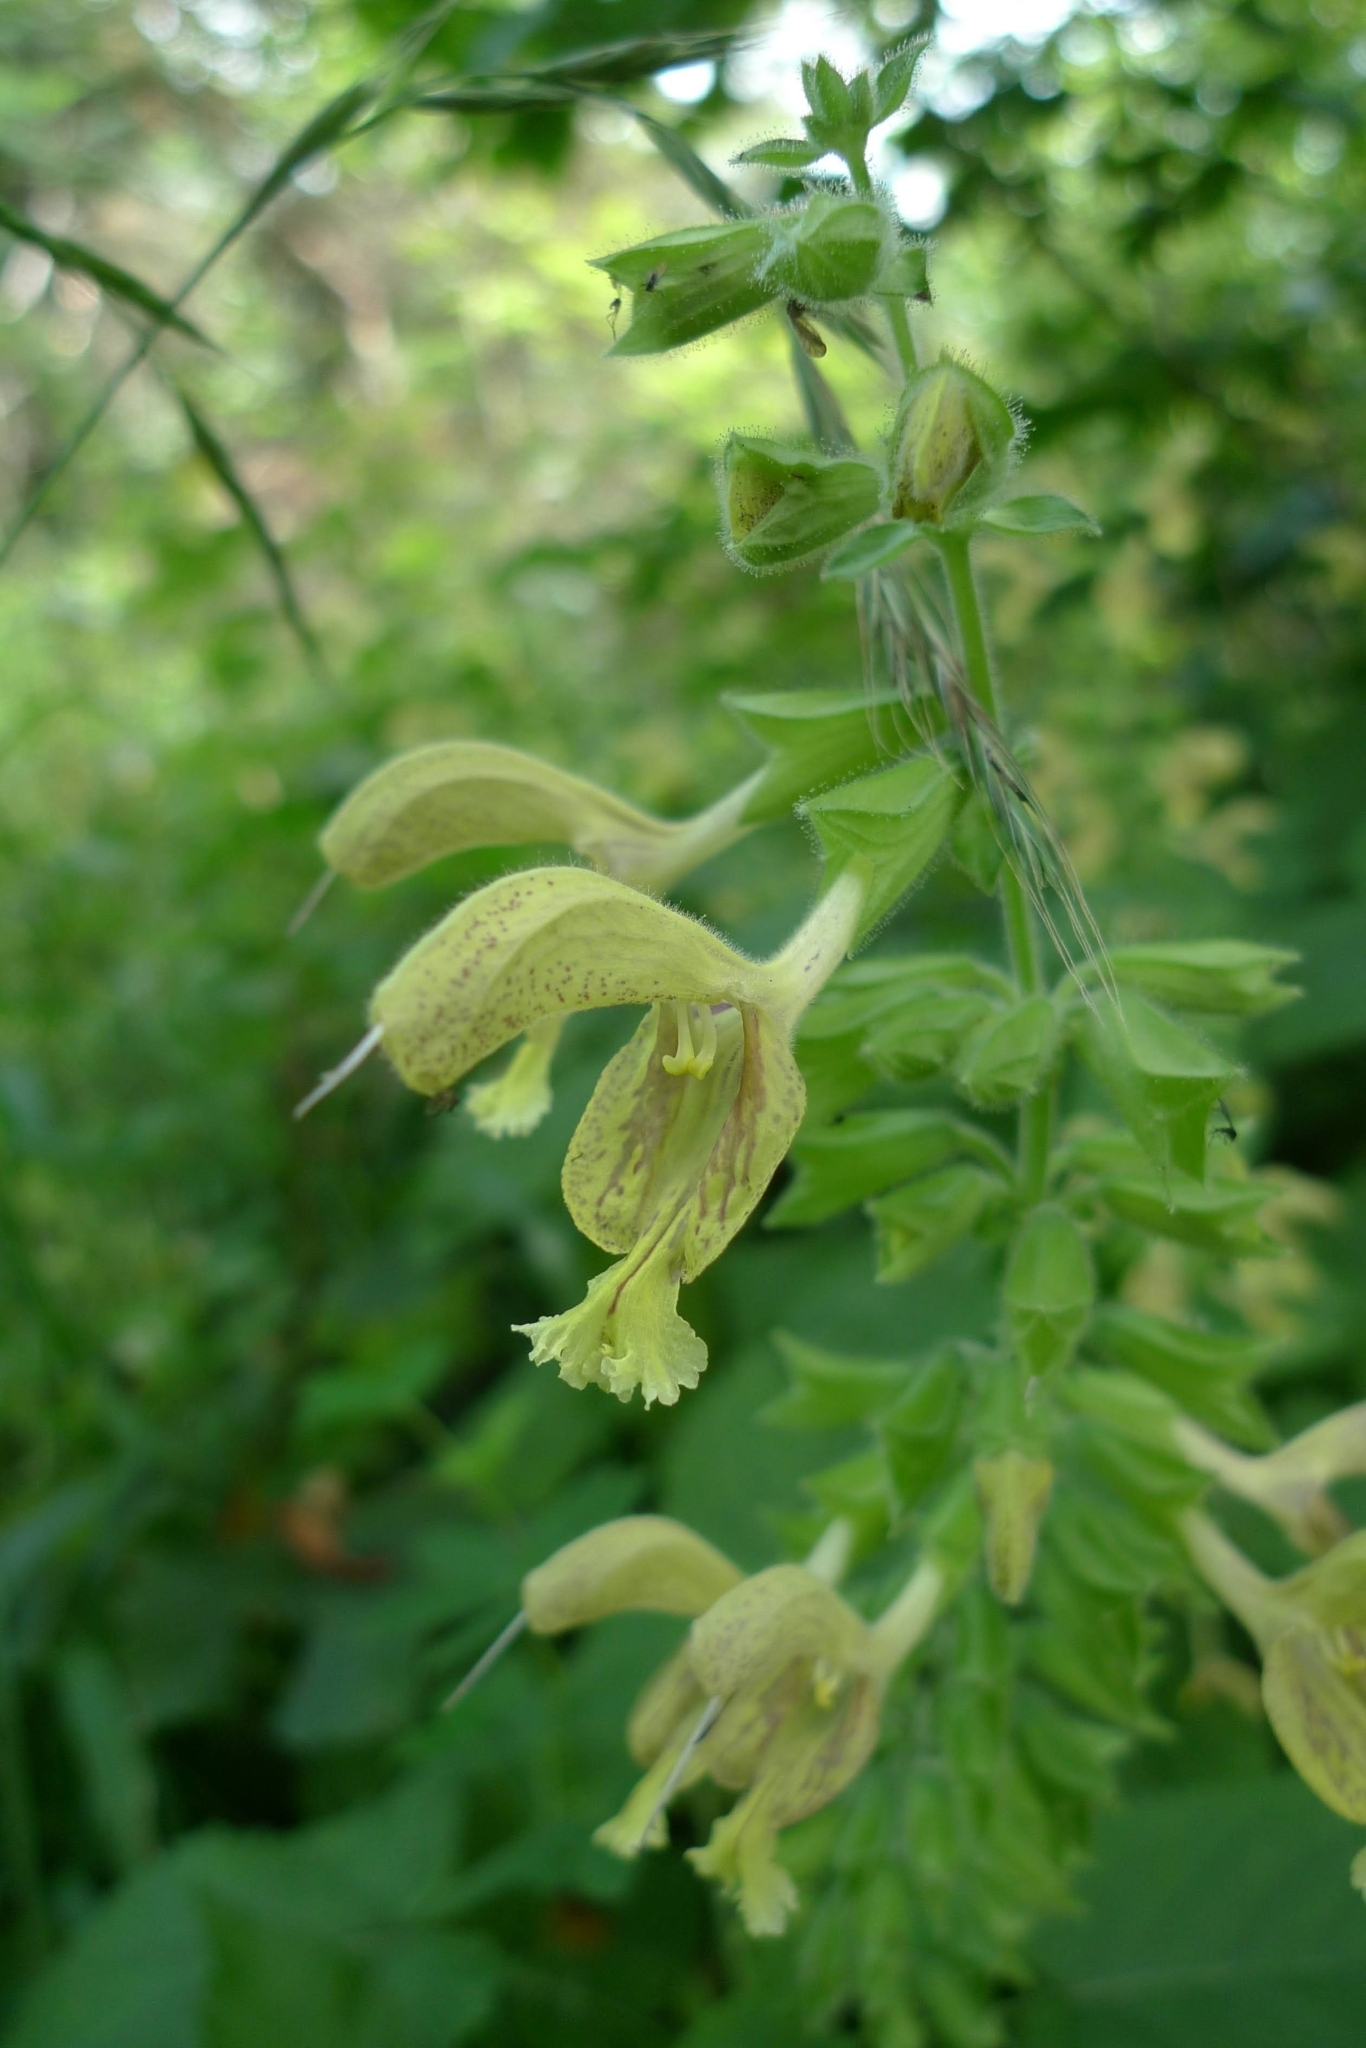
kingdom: Plantae
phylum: Tracheophyta
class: Magnoliopsida
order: Lamiales
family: Lamiaceae
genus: Salvia
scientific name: Salvia glutinosa
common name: Sticky clary
